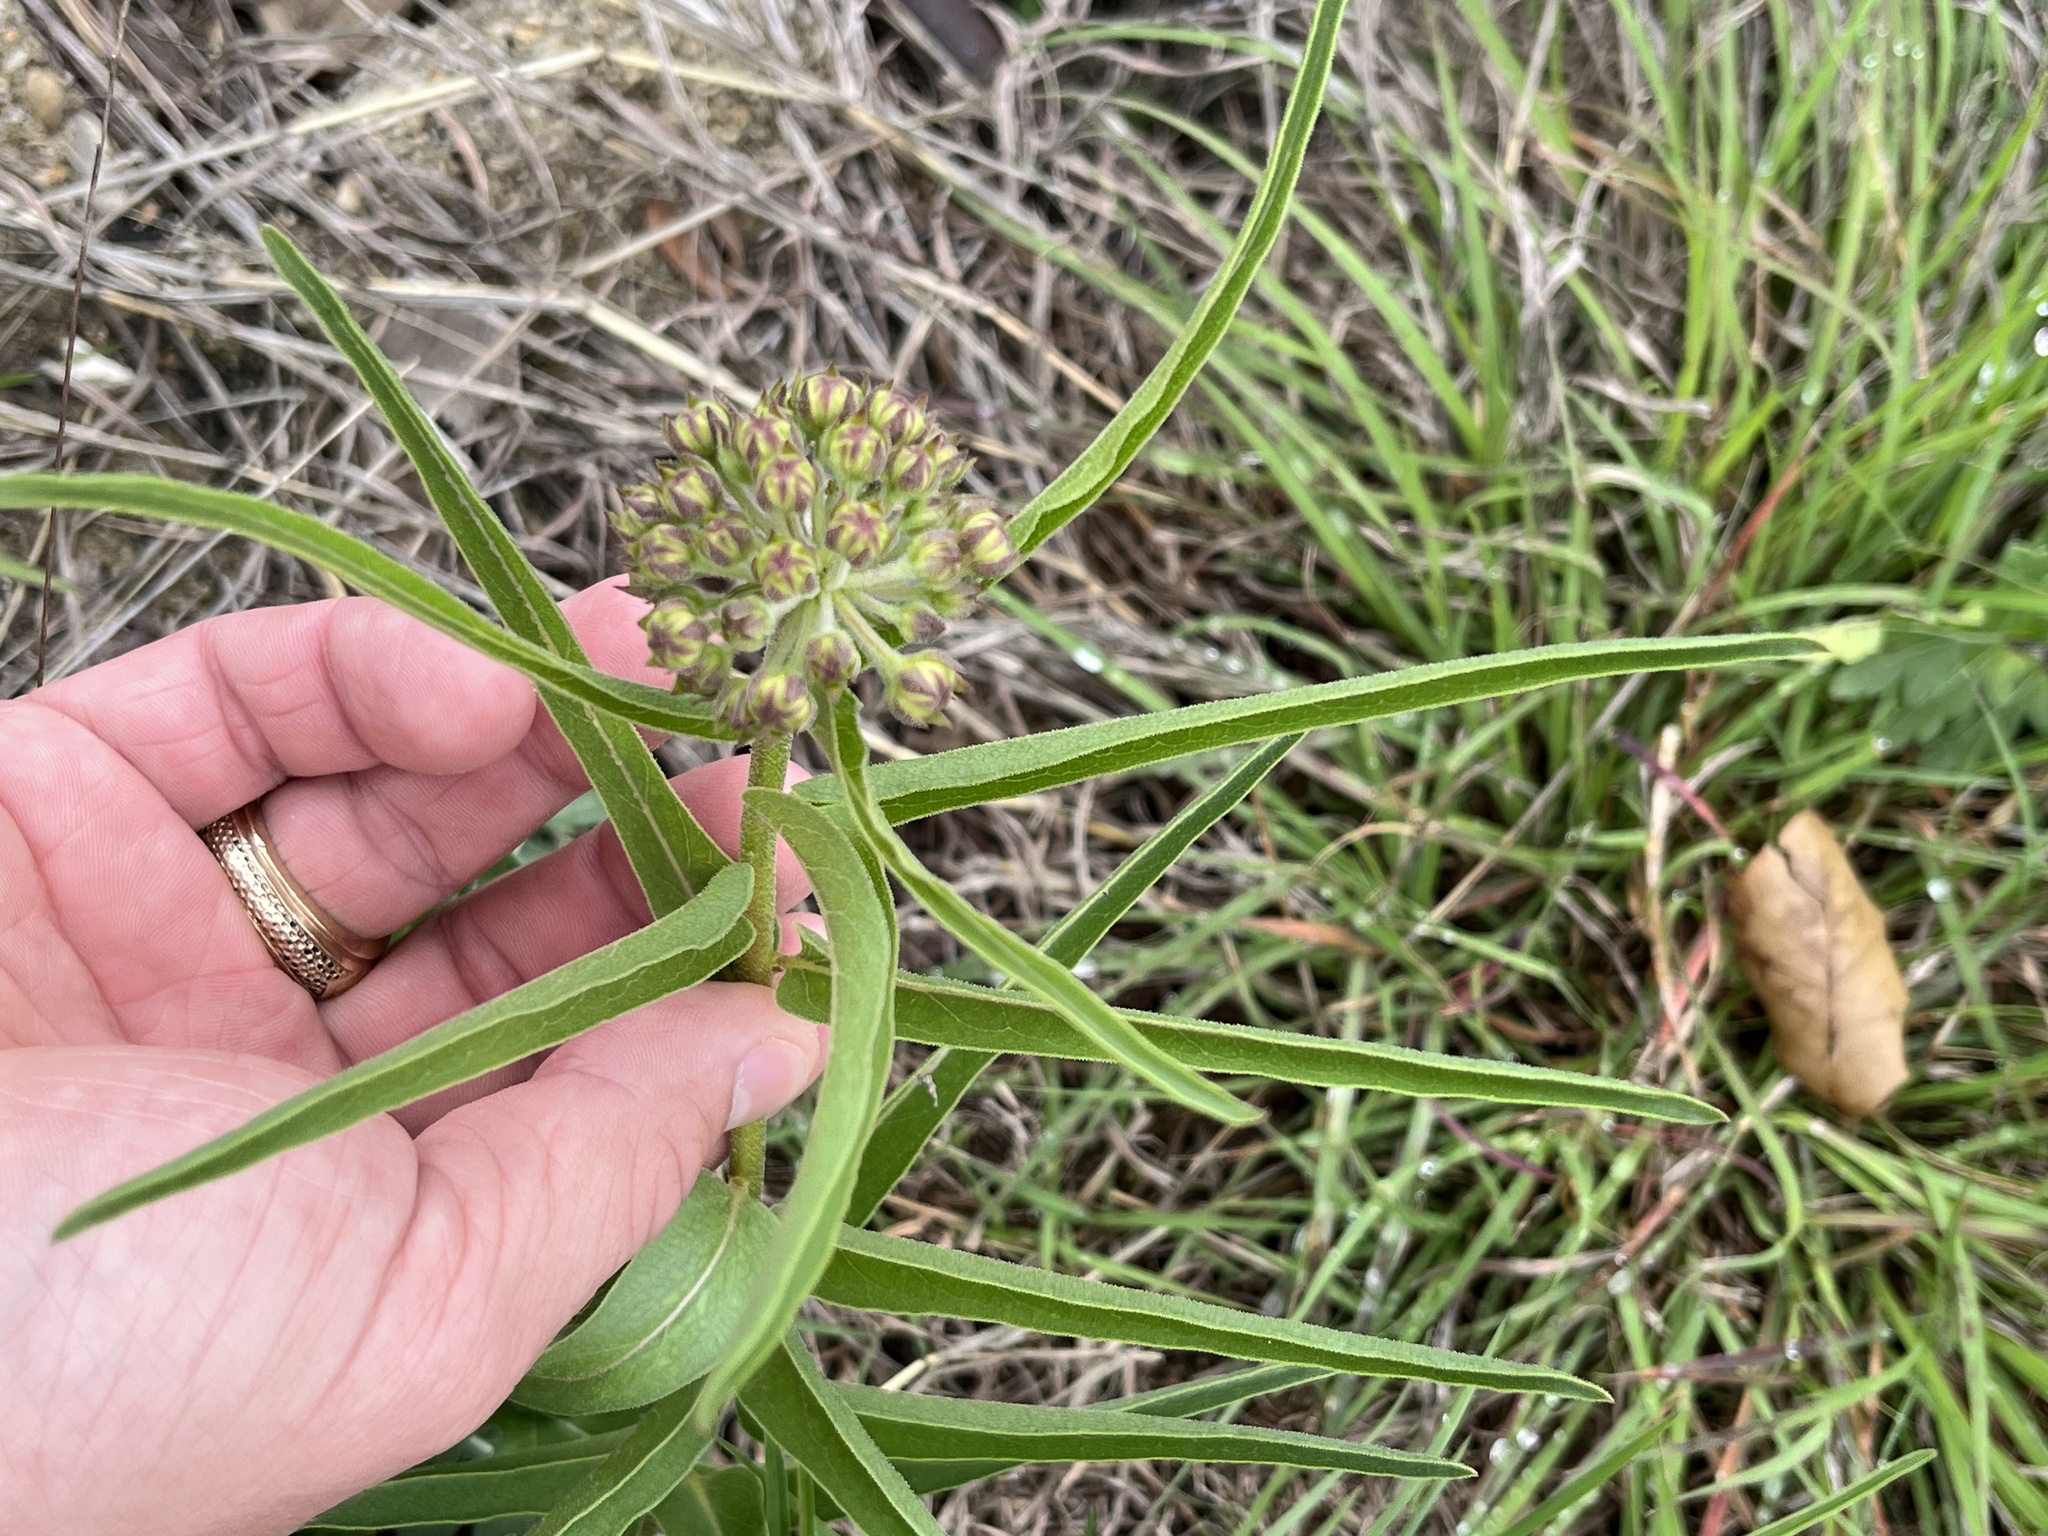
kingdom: Plantae
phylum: Tracheophyta
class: Magnoliopsida
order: Gentianales
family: Apocynaceae
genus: Asclepias
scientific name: Asclepias asperula
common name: Antelope horns
